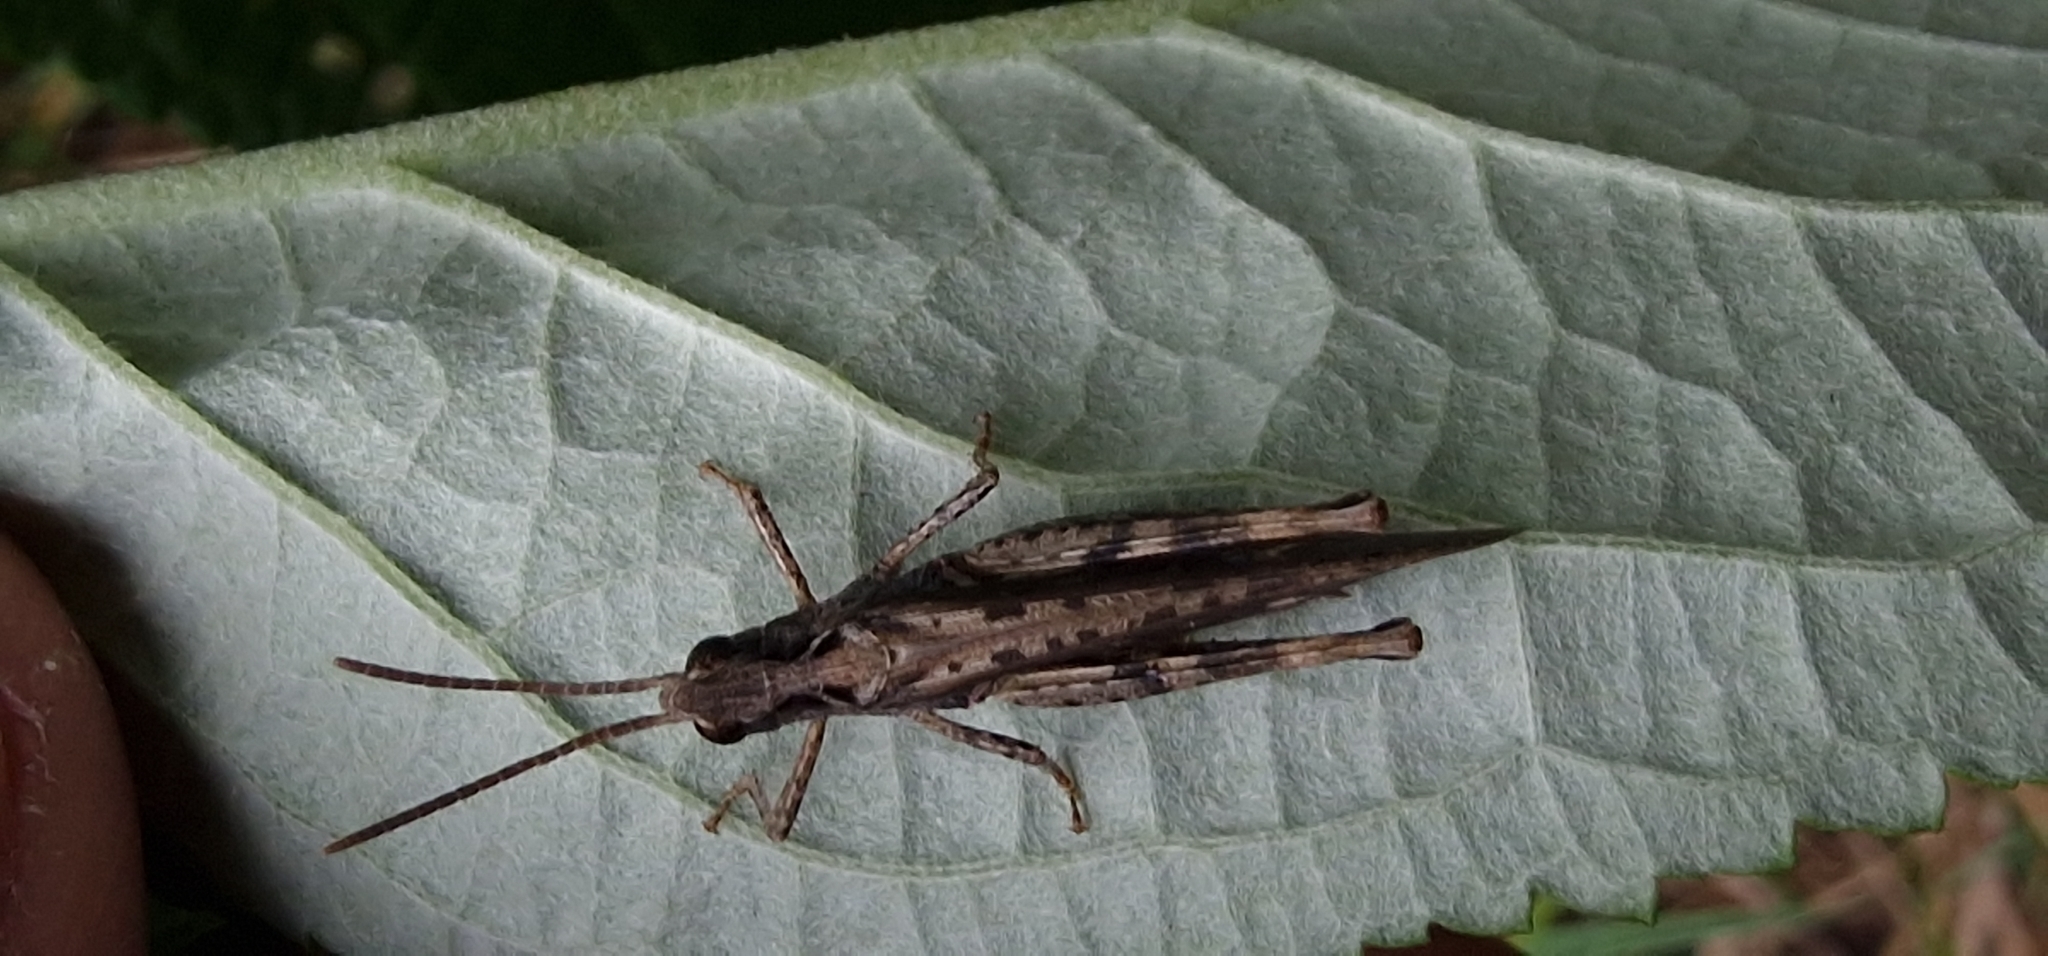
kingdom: Animalia
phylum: Arthropoda
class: Insecta
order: Orthoptera
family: Acrididae
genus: Chorthippus
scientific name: Chorthippus brunneus
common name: Field grasshopper
